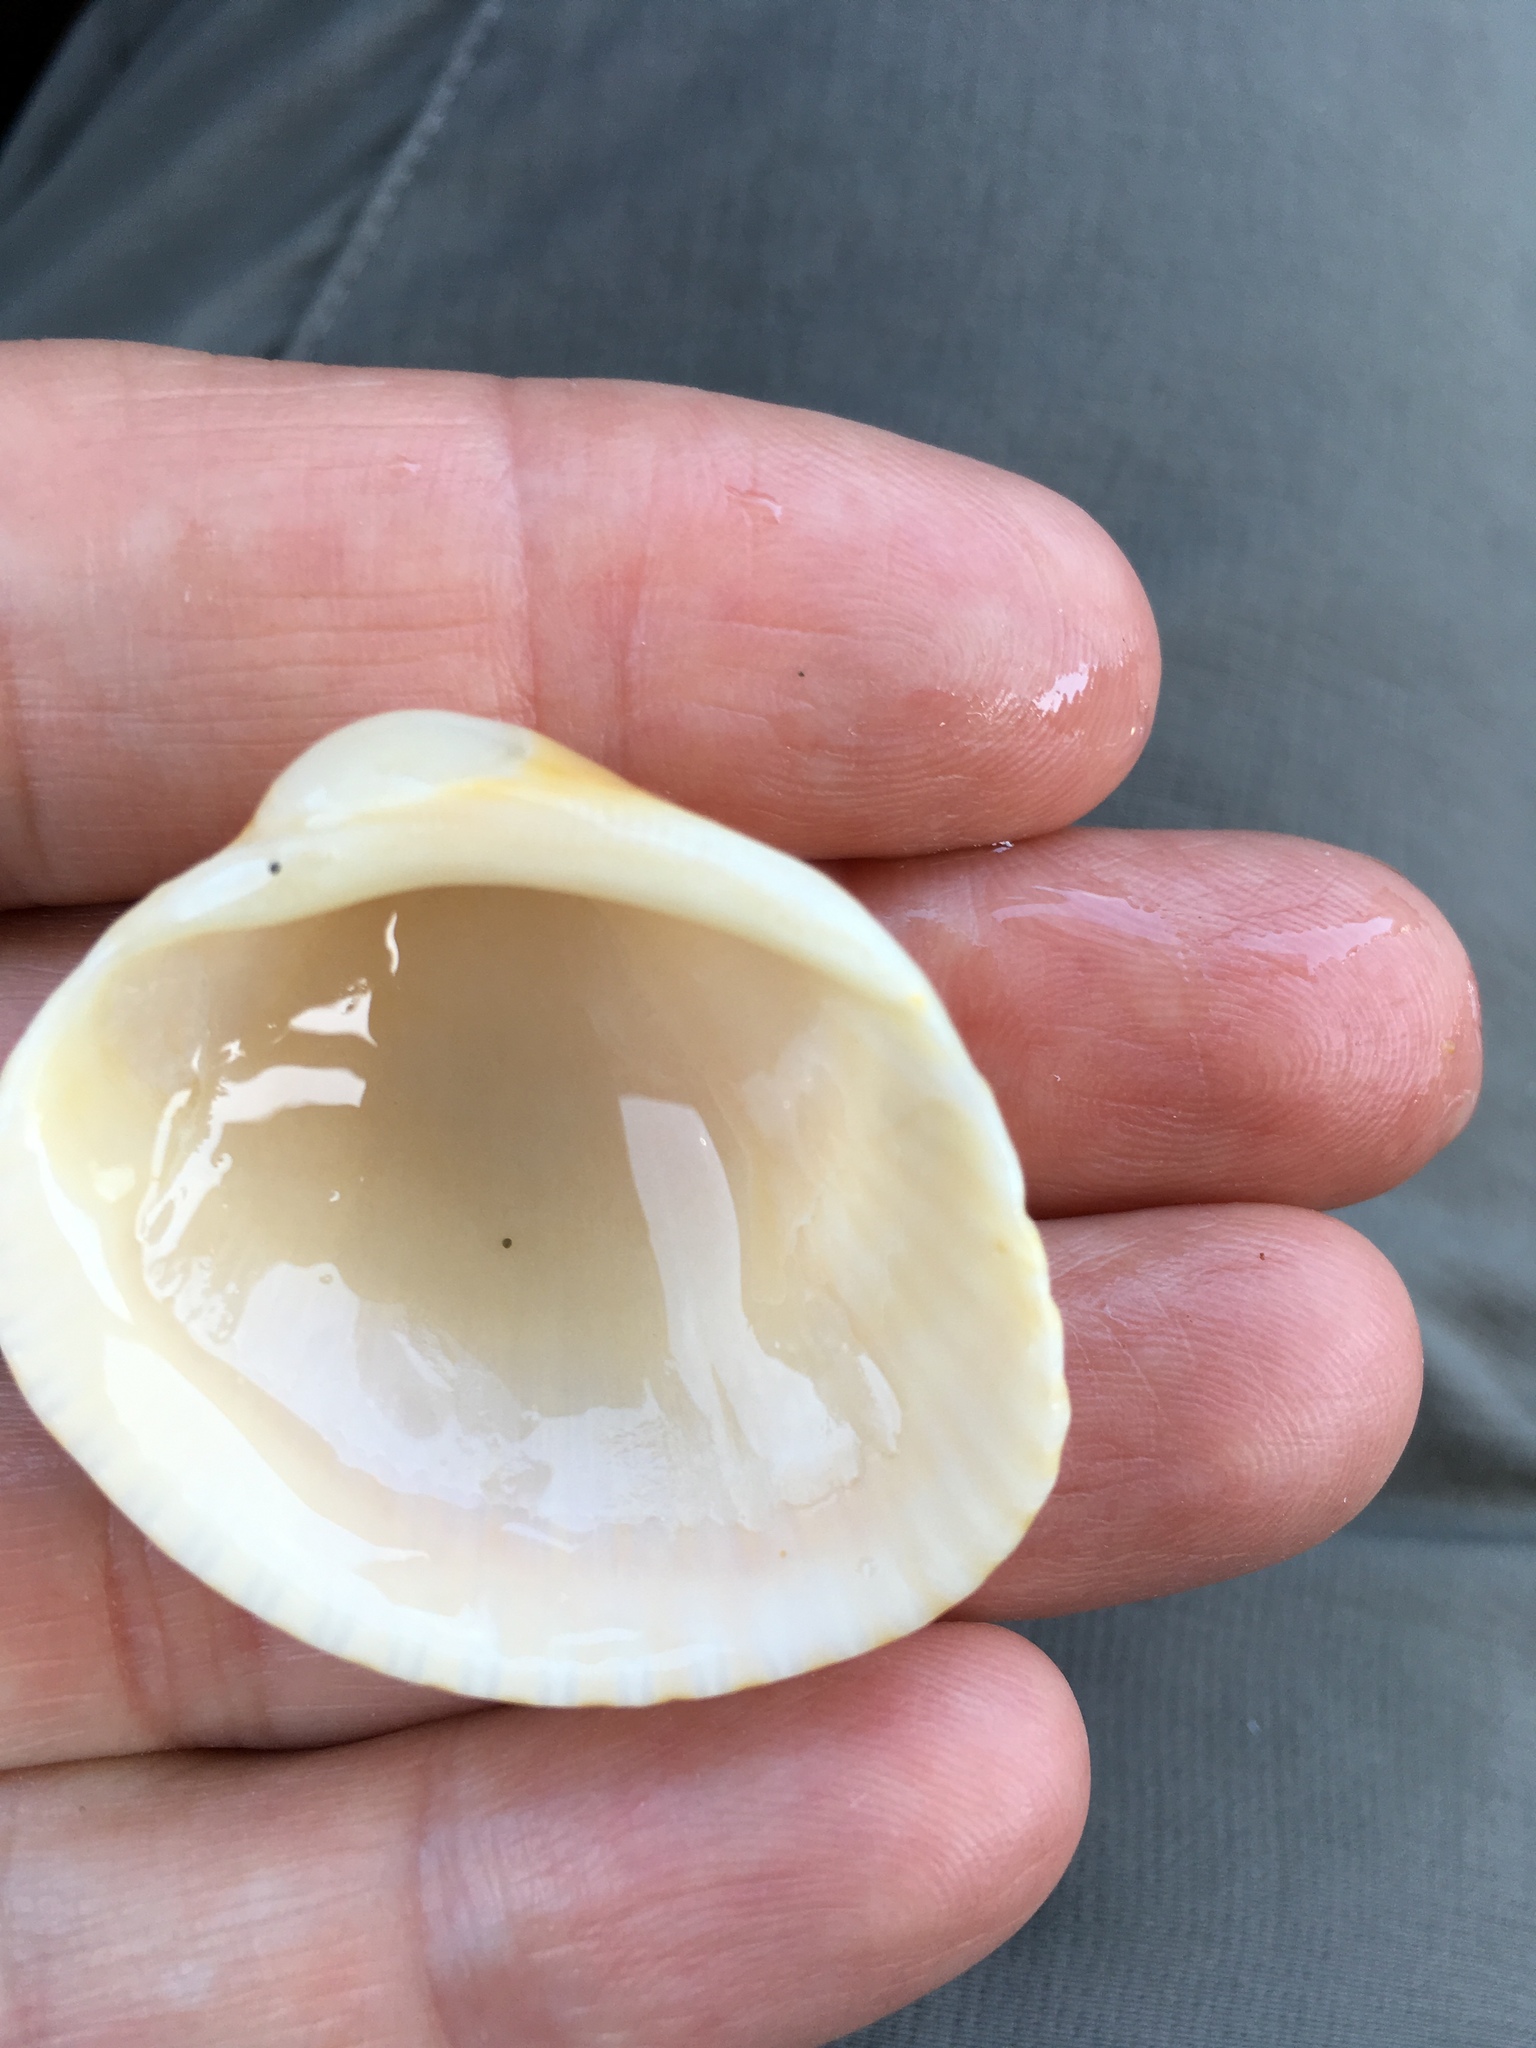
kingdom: Animalia
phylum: Mollusca
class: Bivalvia
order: Arcida
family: Arcidae
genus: Lunarca
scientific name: Lunarca ovalis
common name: Blood ark
